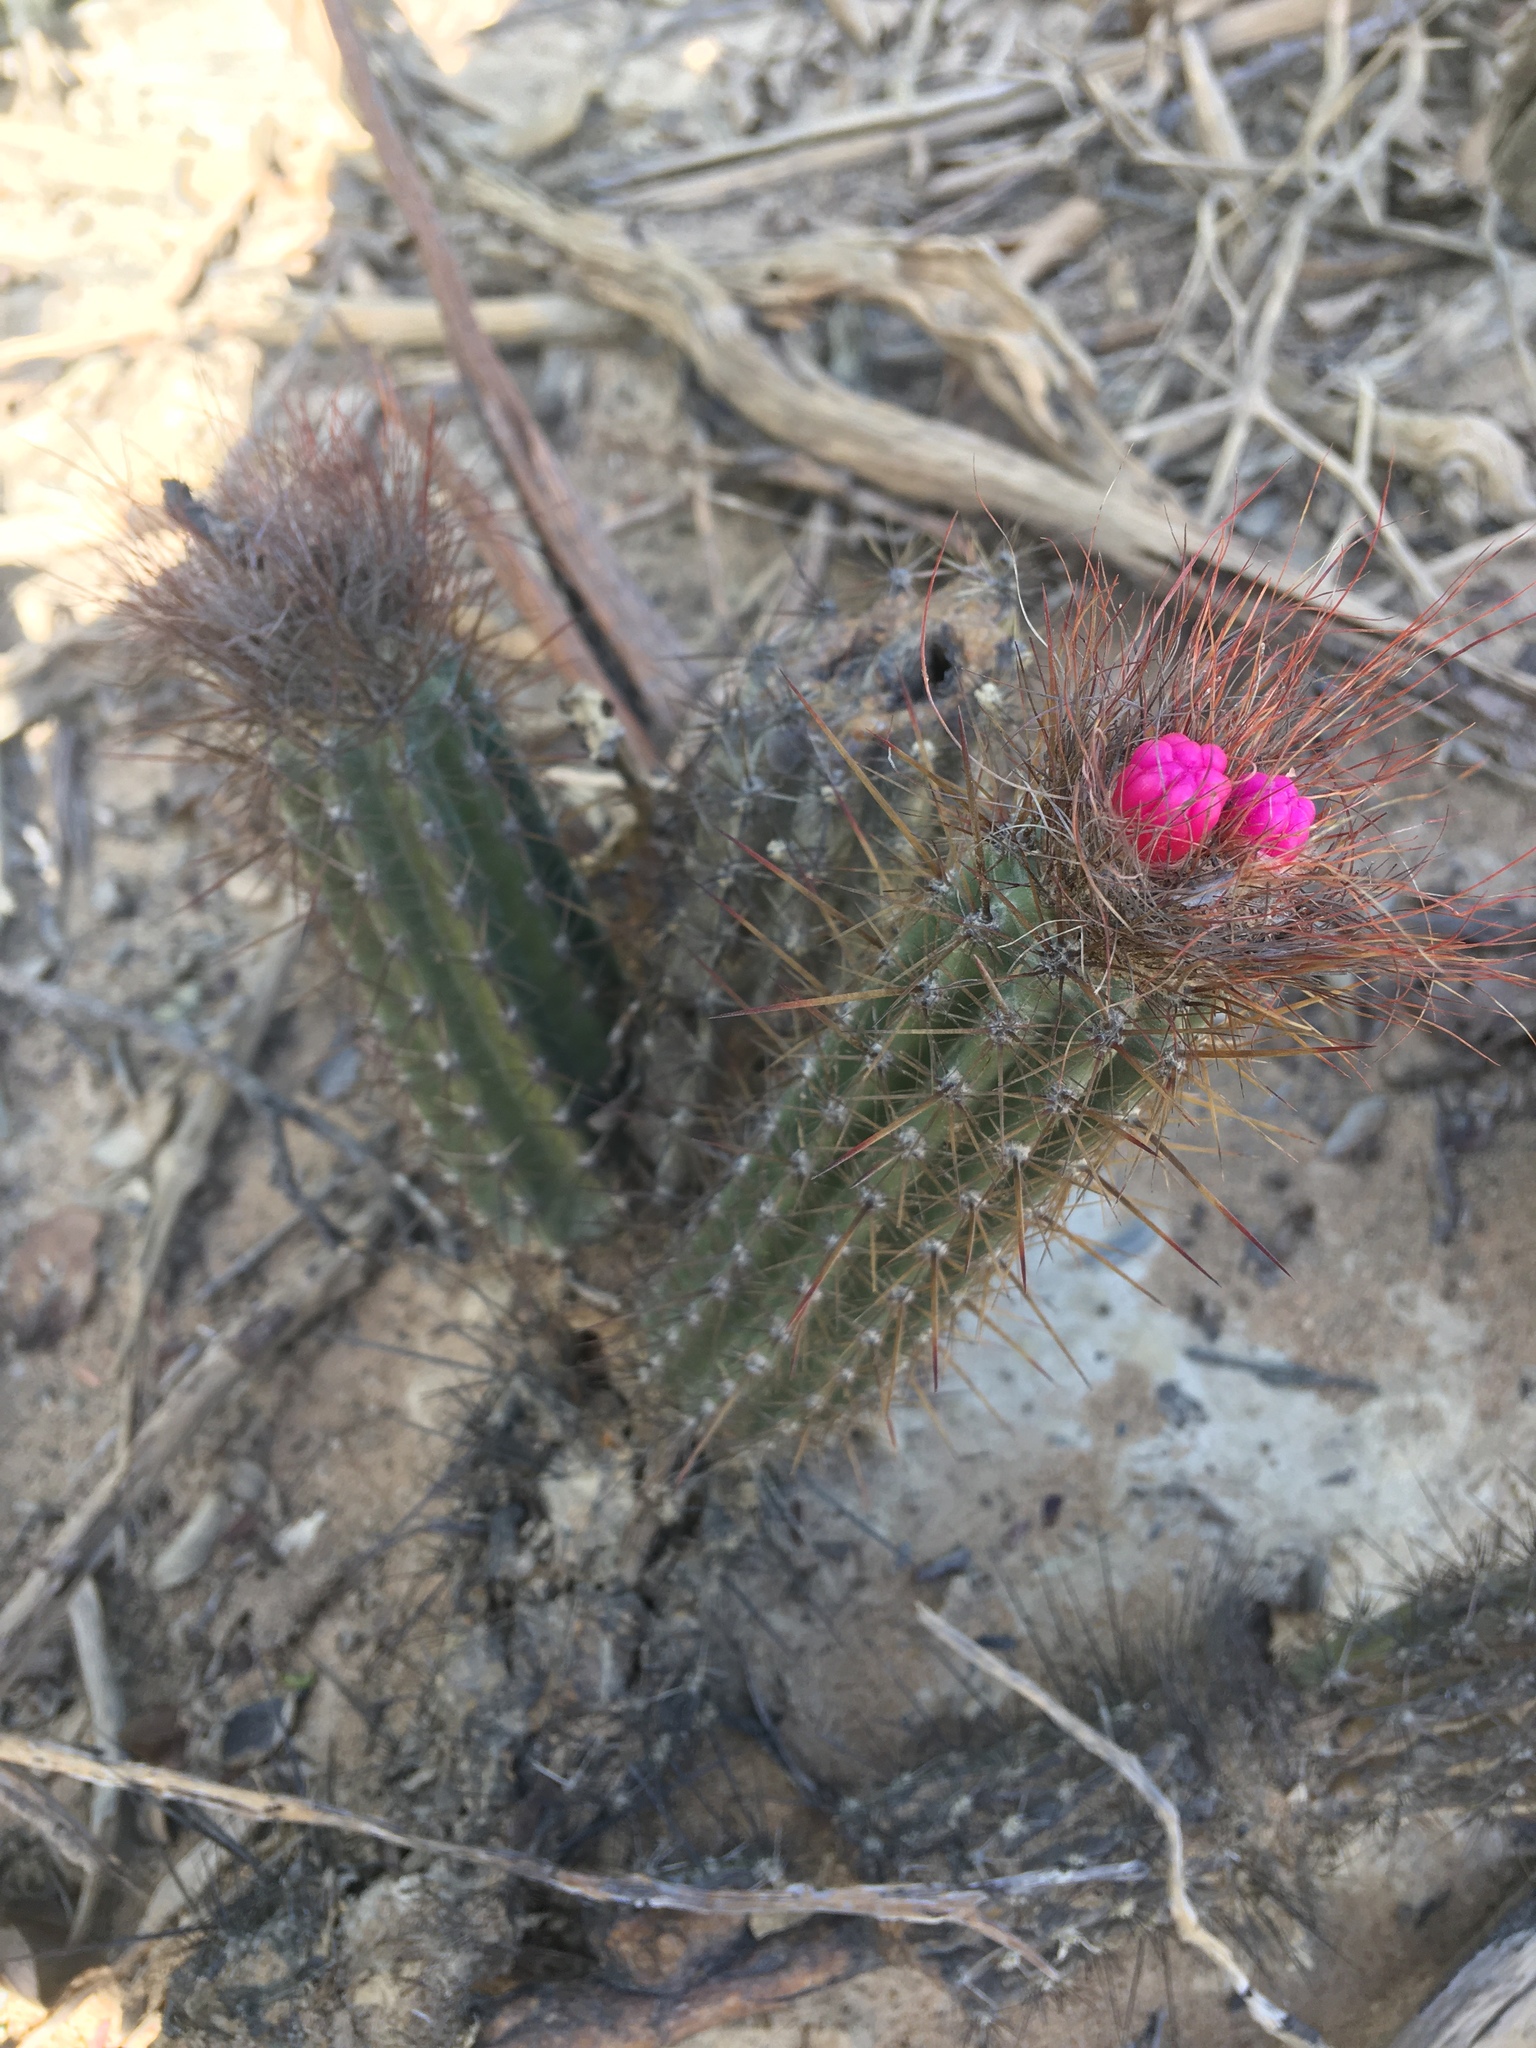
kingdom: Plantae
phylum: Tracheophyta
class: Magnoliopsida
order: Caryophyllales
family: Cactaceae
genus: Arrojadoa
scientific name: Arrojadoa rhodantha
